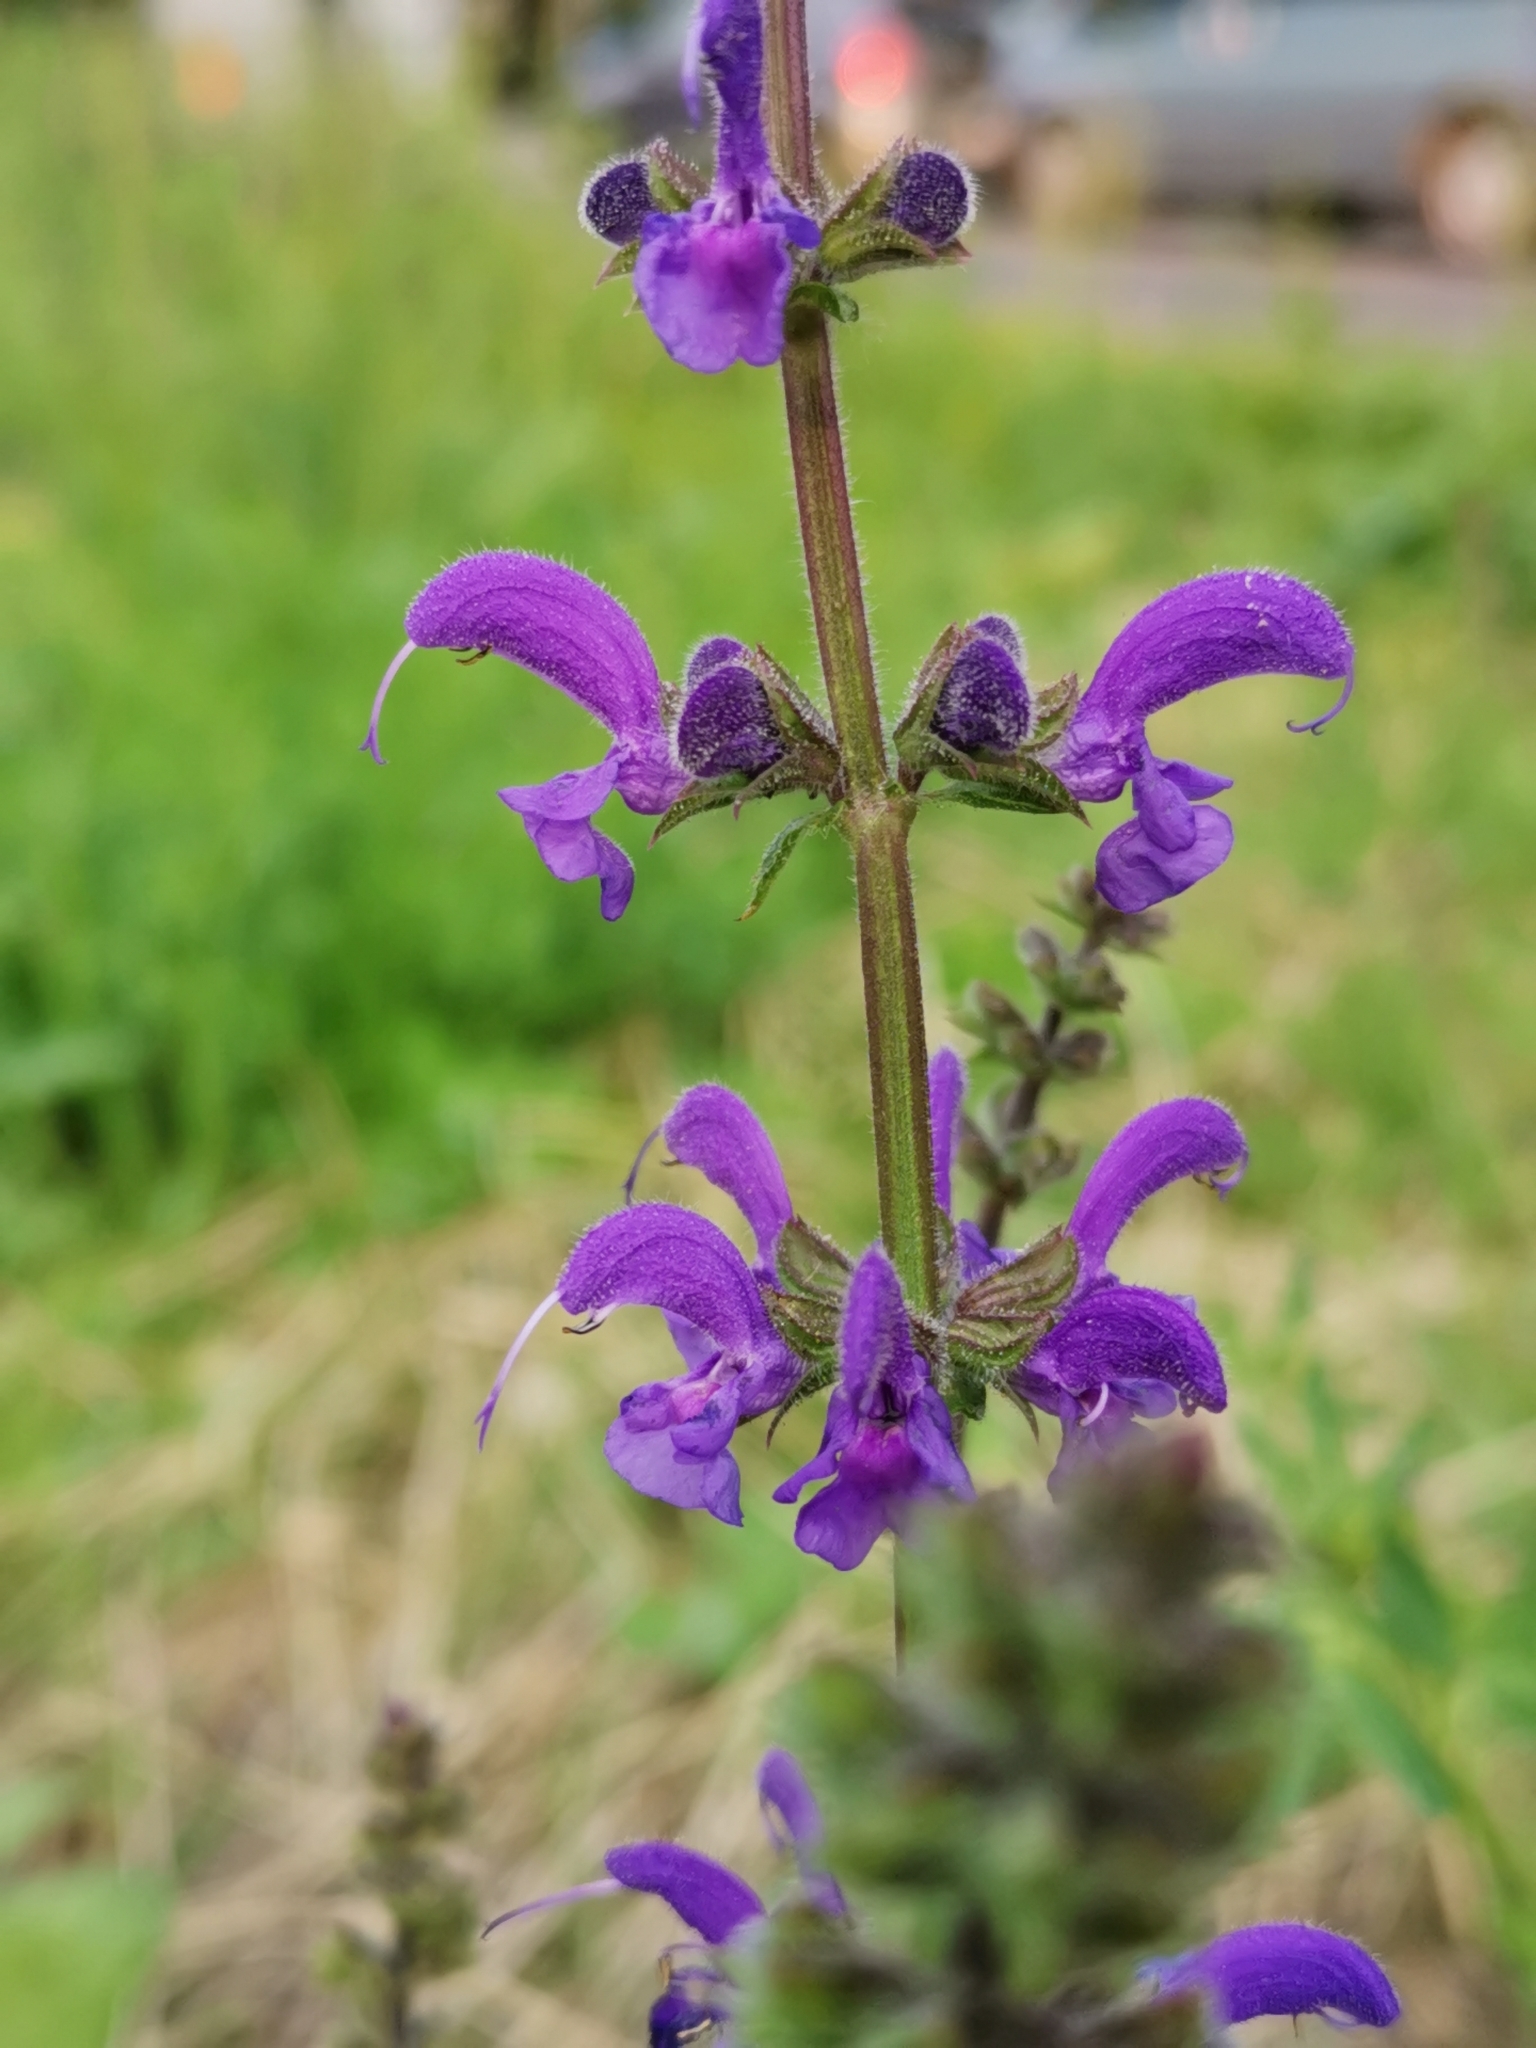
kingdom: Plantae
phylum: Tracheophyta
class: Magnoliopsida
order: Lamiales
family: Lamiaceae
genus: Salvia
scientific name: Salvia pratensis
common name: Meadow sage
